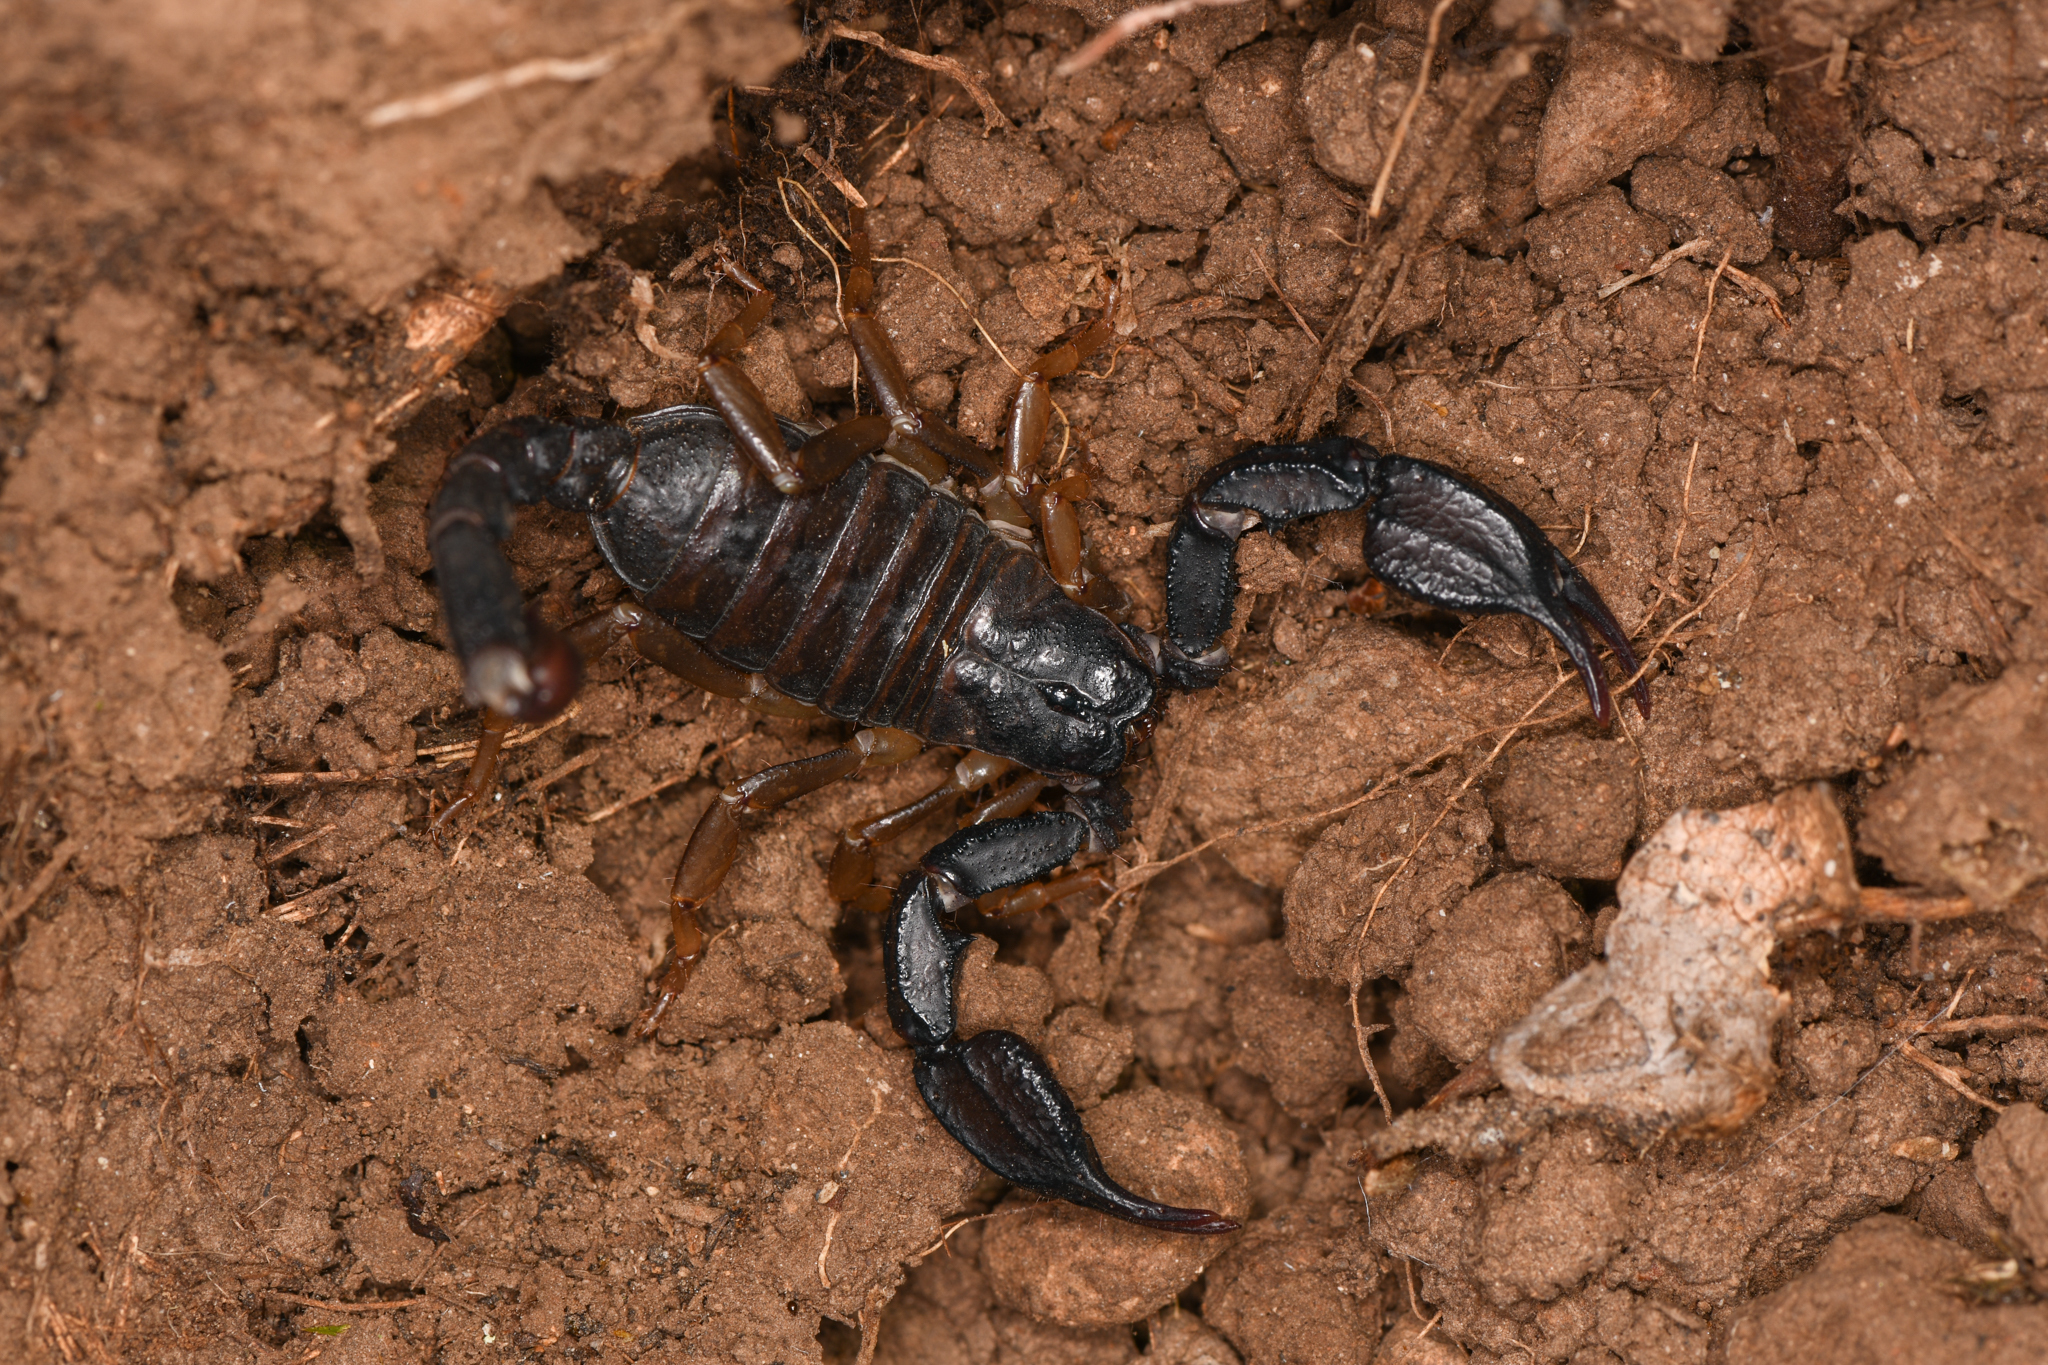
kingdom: Animalia
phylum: Arthropoda
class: Arachnida
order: Scorpiones
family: Chactidae
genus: Uroctonus
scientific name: Uroctonus mordax
